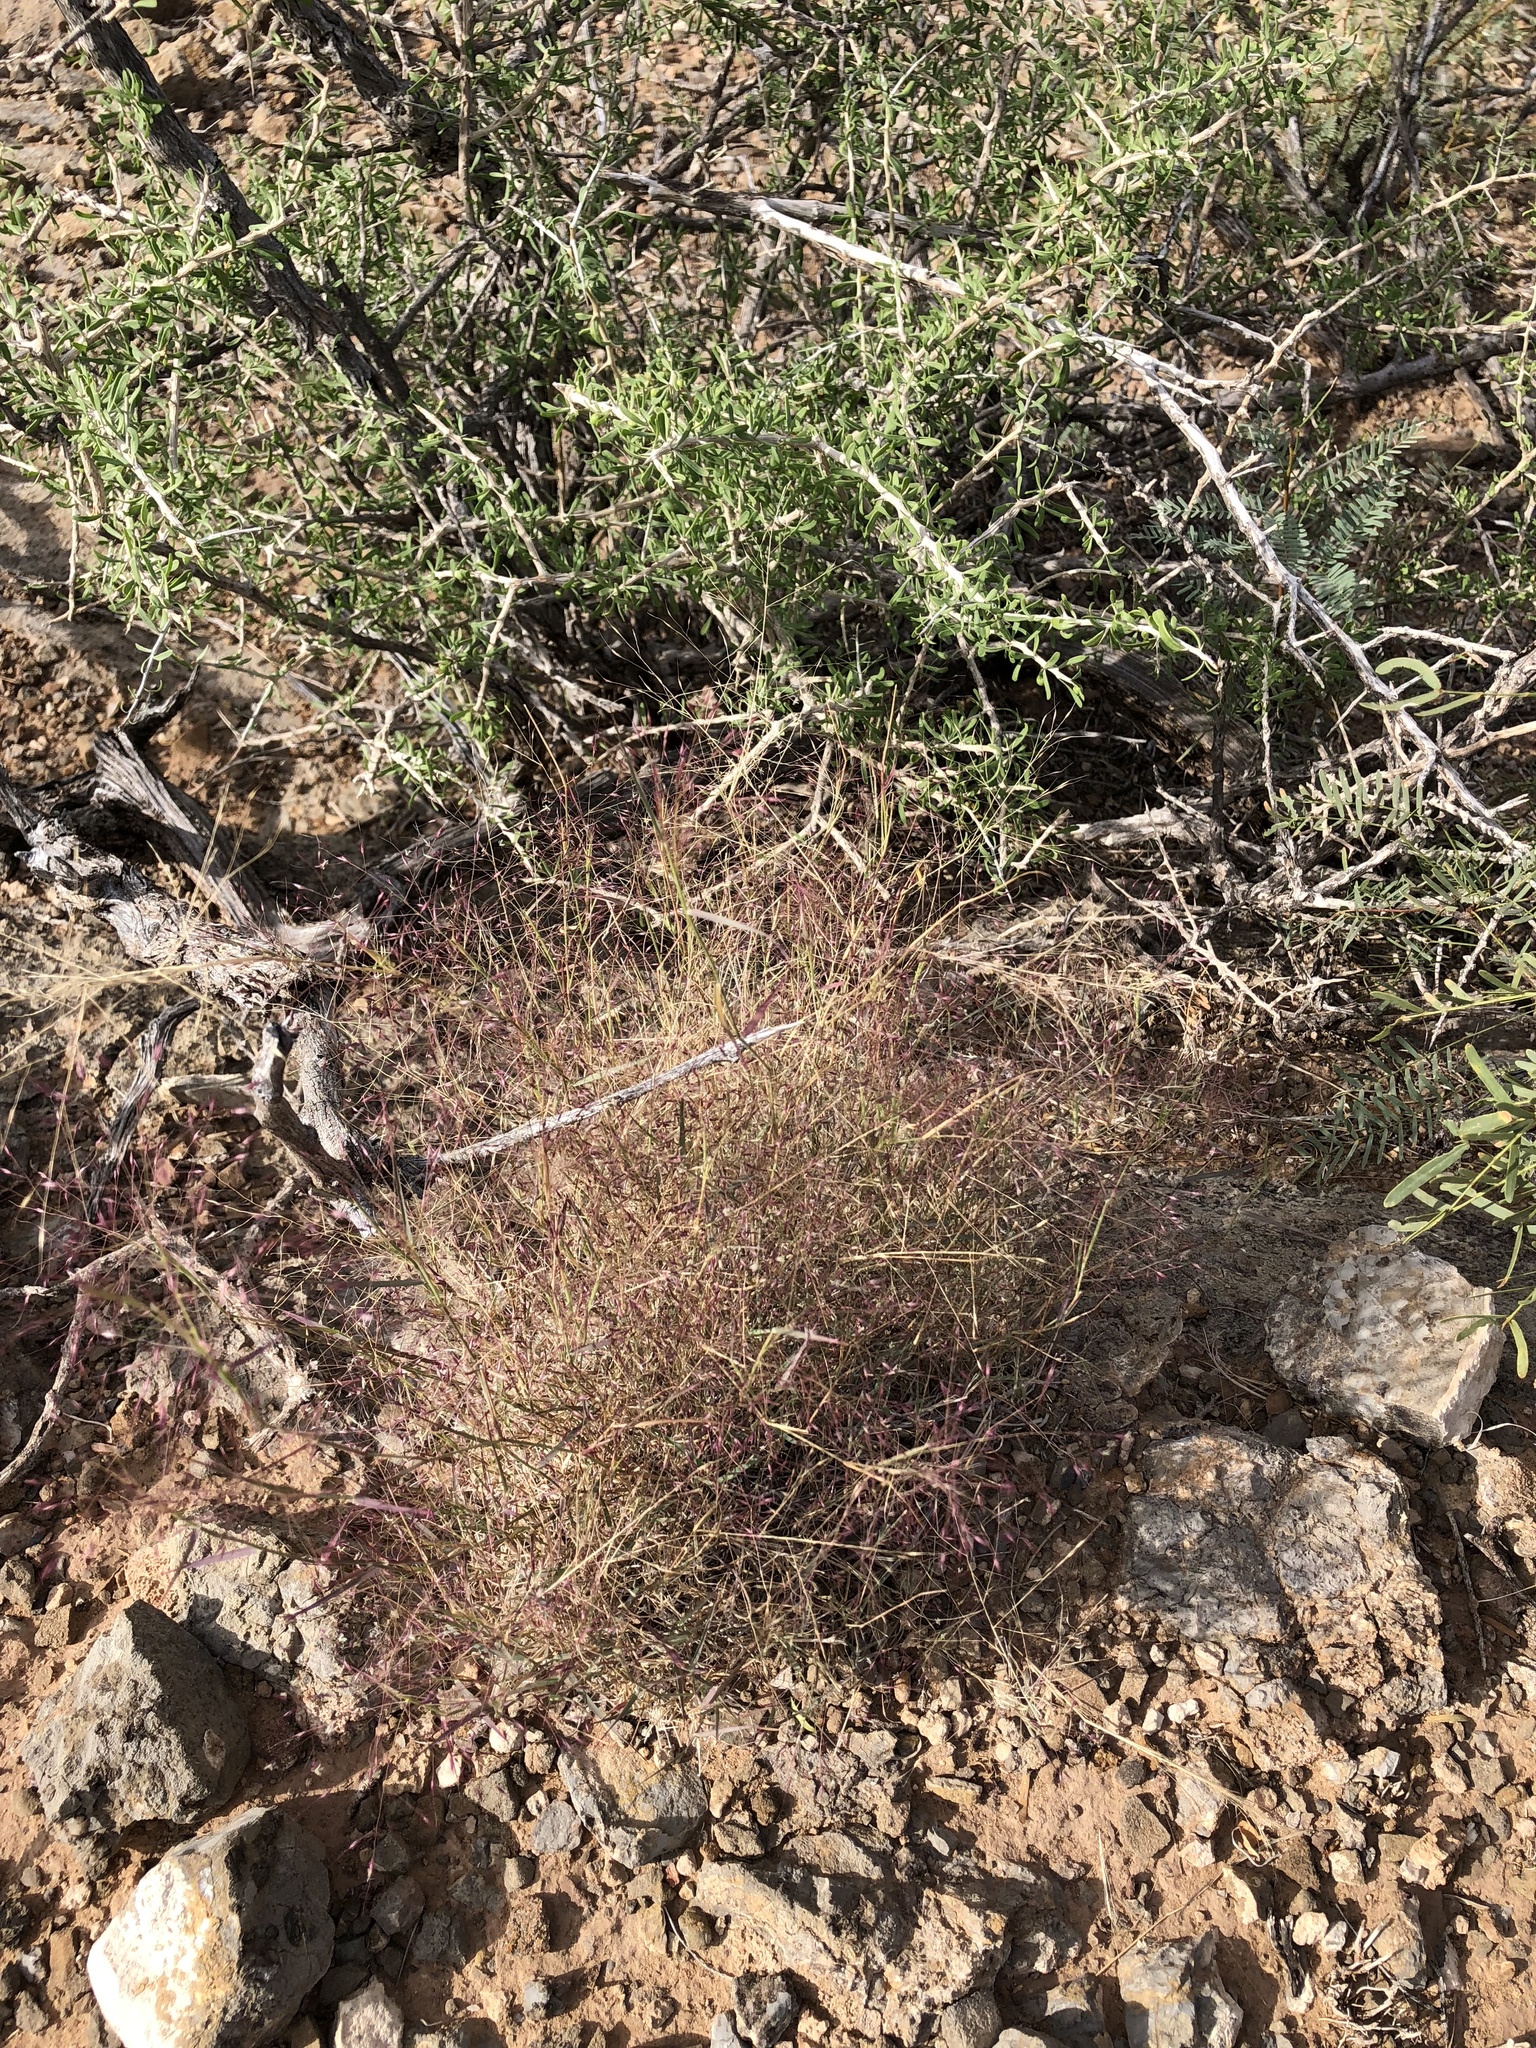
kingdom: Plantae
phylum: Tracheophyta
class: Liliopsida
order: Poales
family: Poaceae
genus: Muhlenbergia
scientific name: Muhlenbergia porteri
